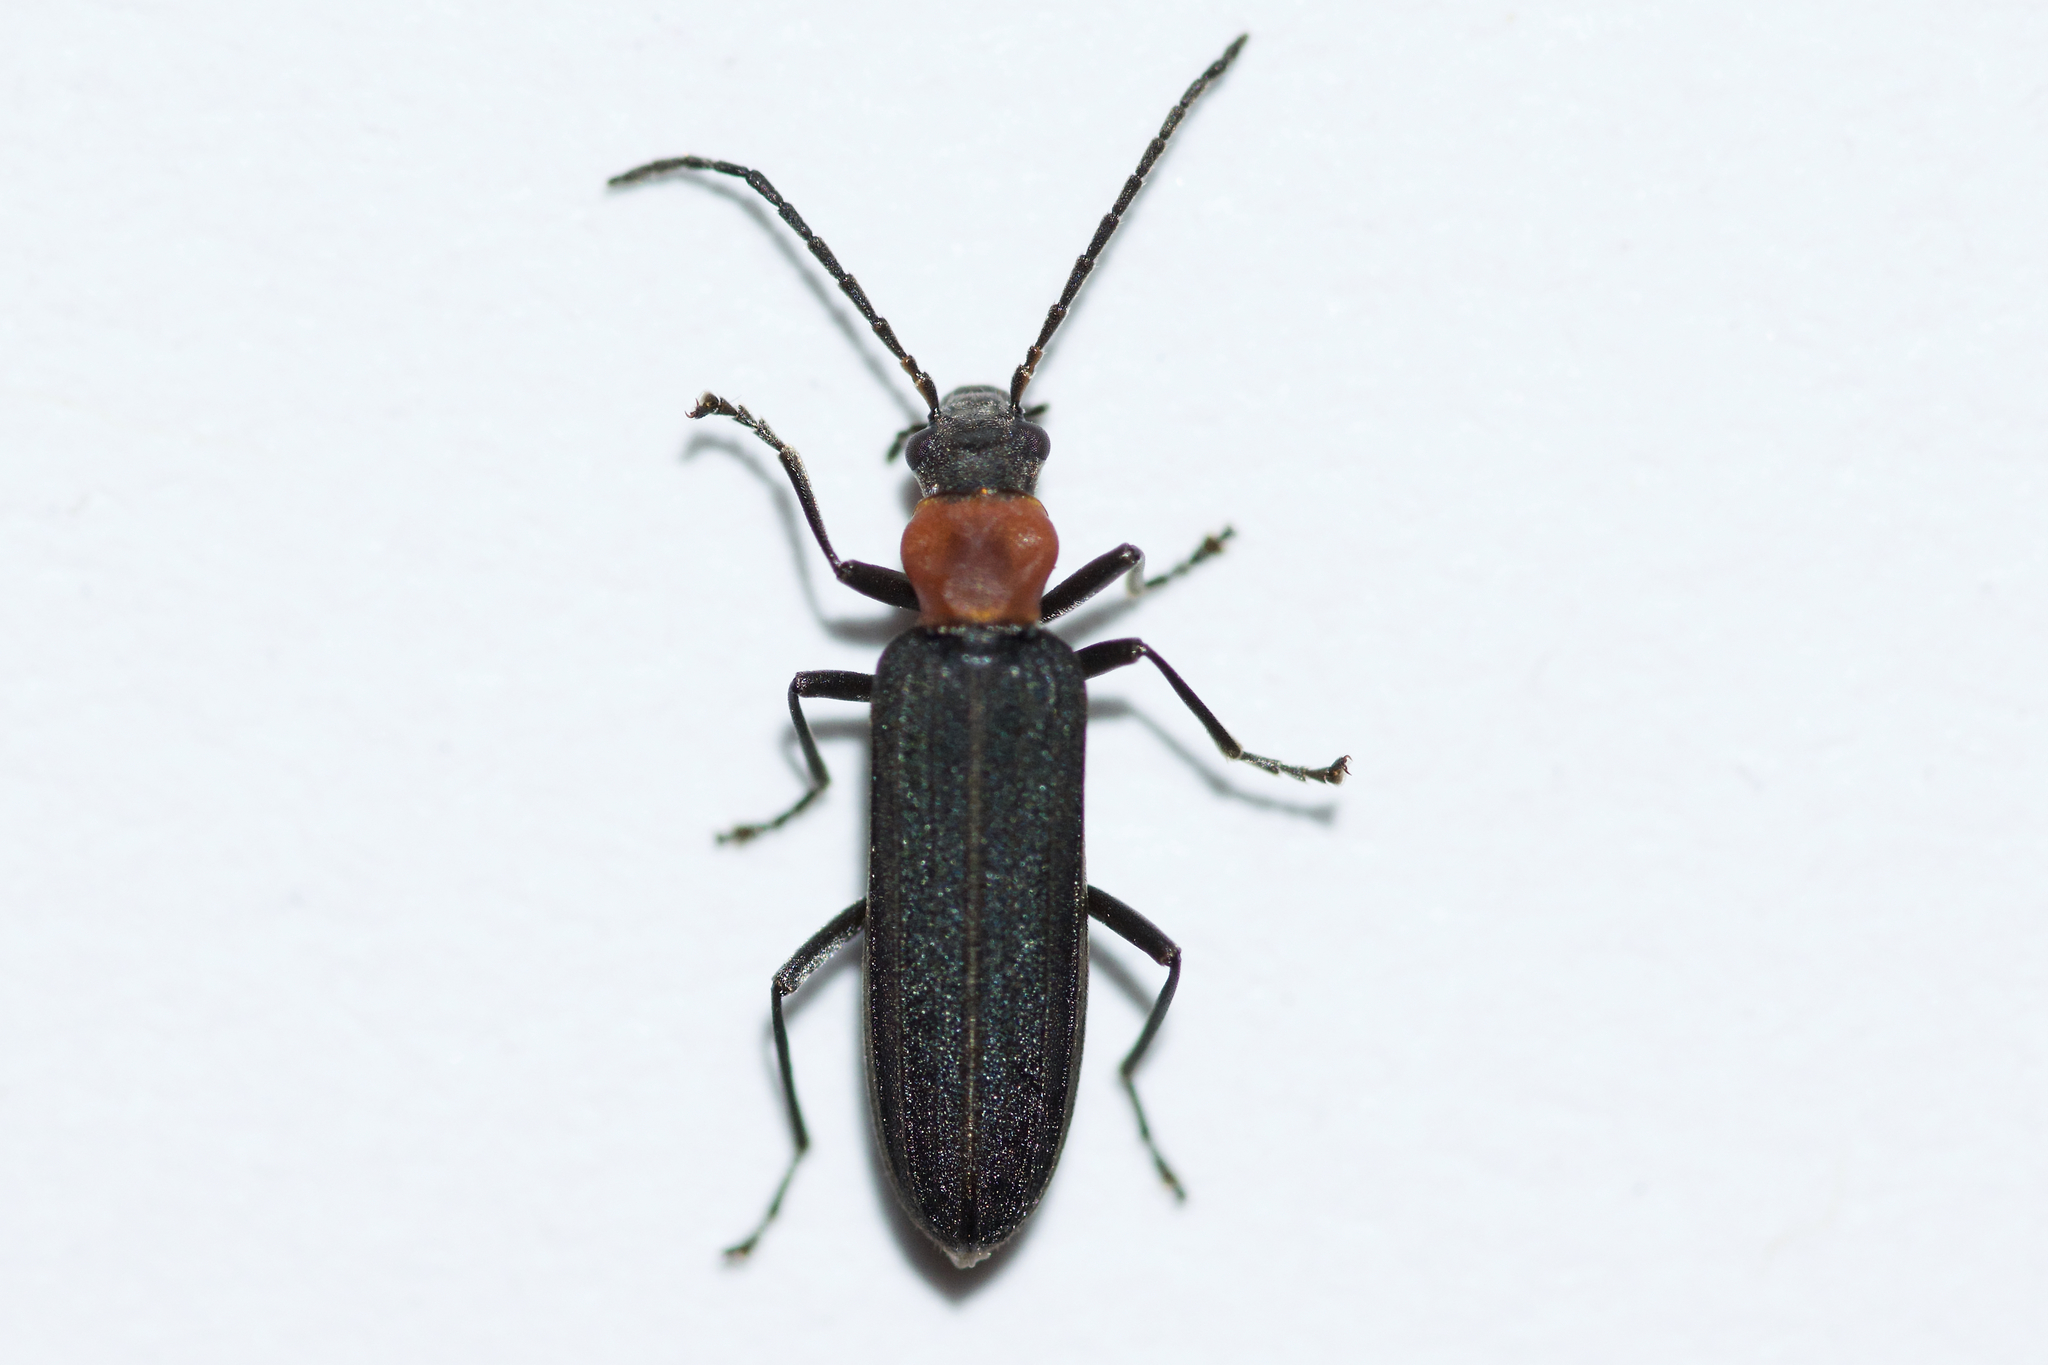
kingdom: Animalia
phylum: Arthropoda
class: Insecta
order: Coleoptera
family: Oedemeridae
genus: Ischnomera
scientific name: Ischnomera
